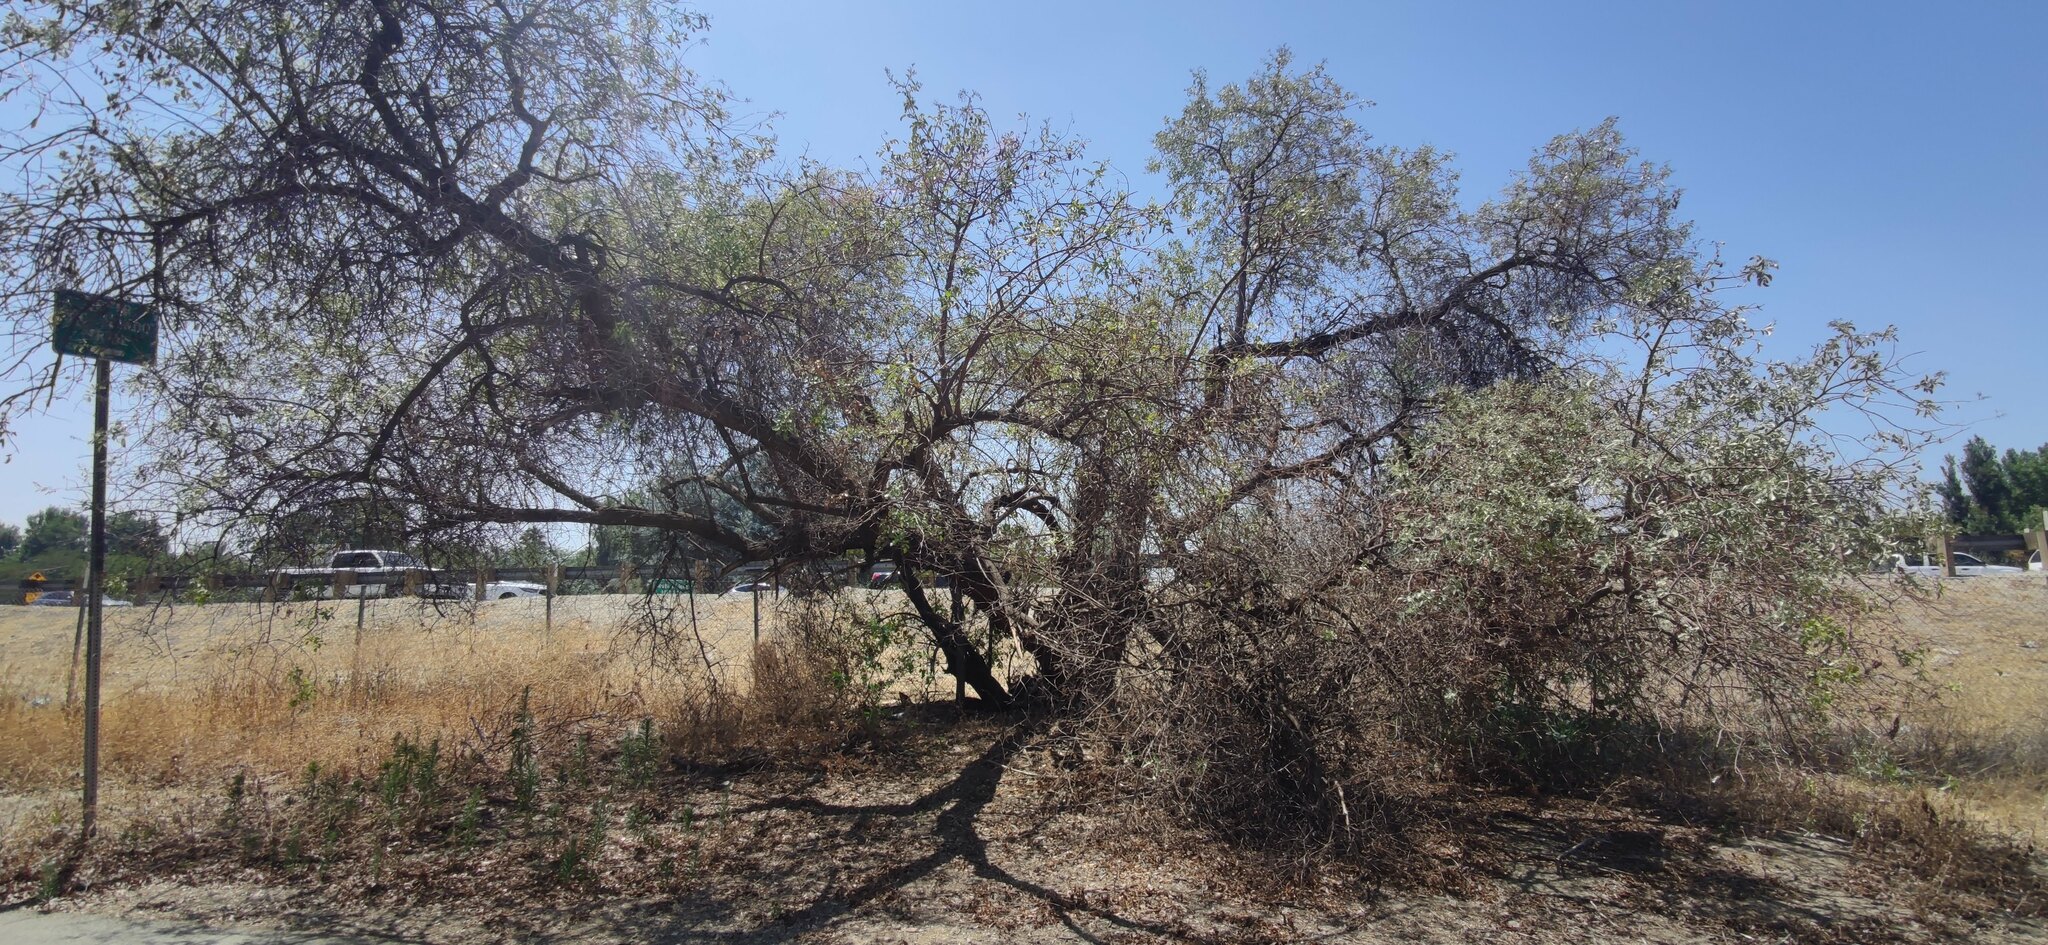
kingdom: Plantae
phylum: Tracheophyta
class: Magnoliopsida
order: Dipsacales
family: Viburnaceae
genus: Sambucus
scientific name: Sambucus cerulea
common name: Blue elder
